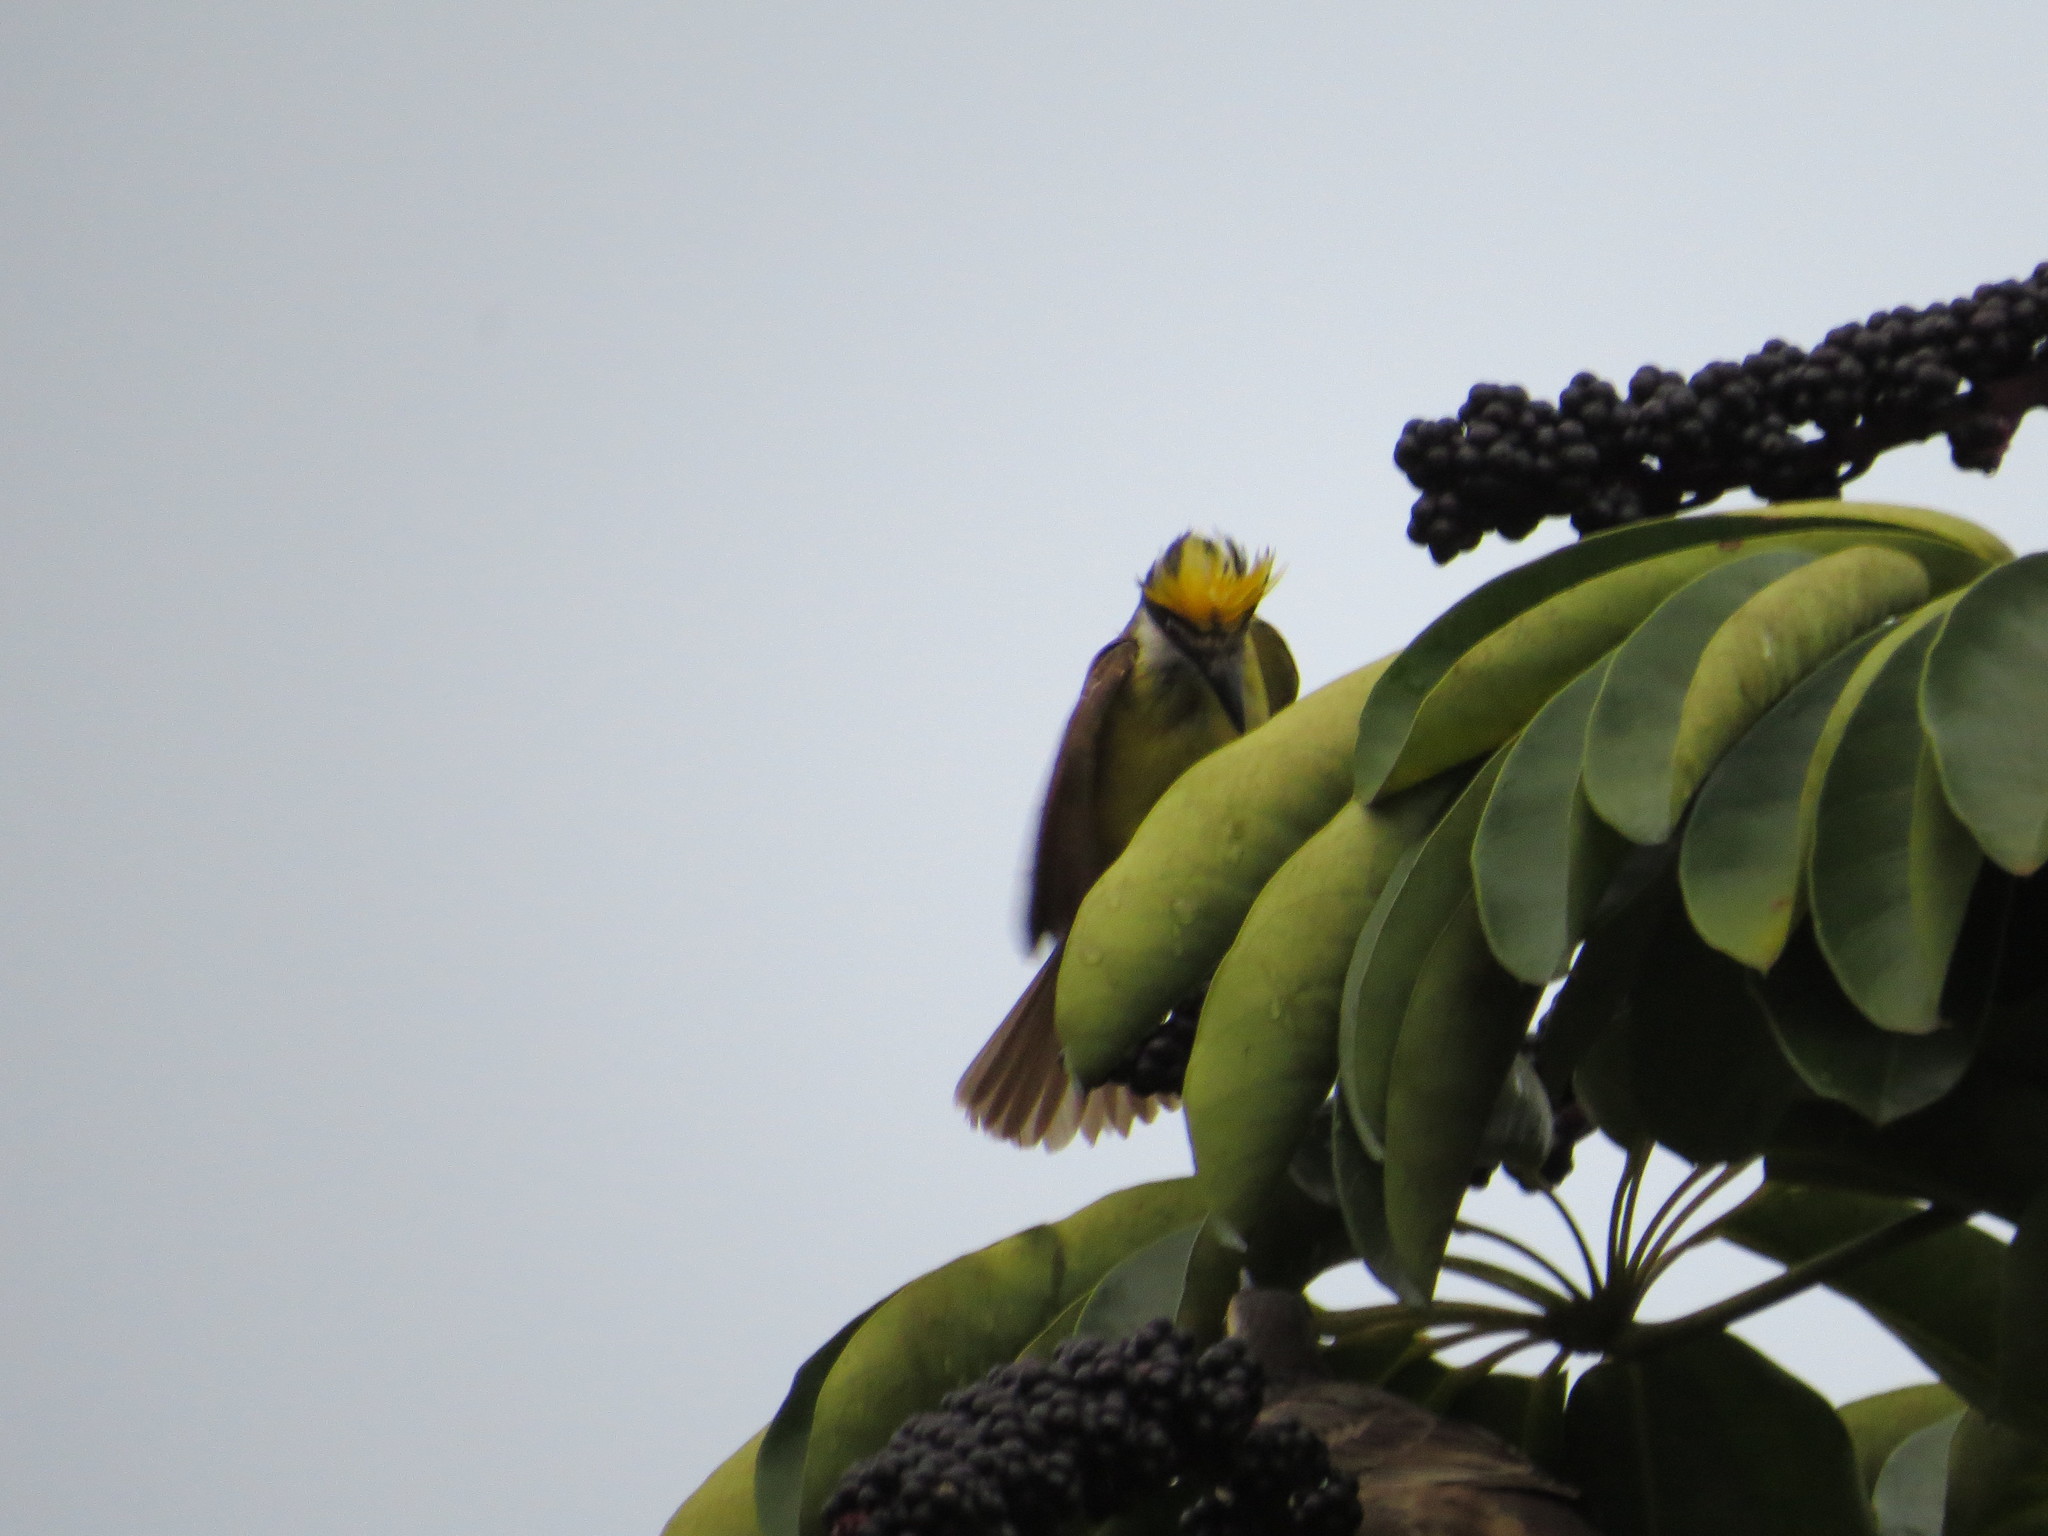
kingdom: Animalia
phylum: Chordata
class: Aves
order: Passeriformes
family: Tyrannidae
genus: Pitangus
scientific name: Pitangus sulphuratus
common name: Great kiskadee
